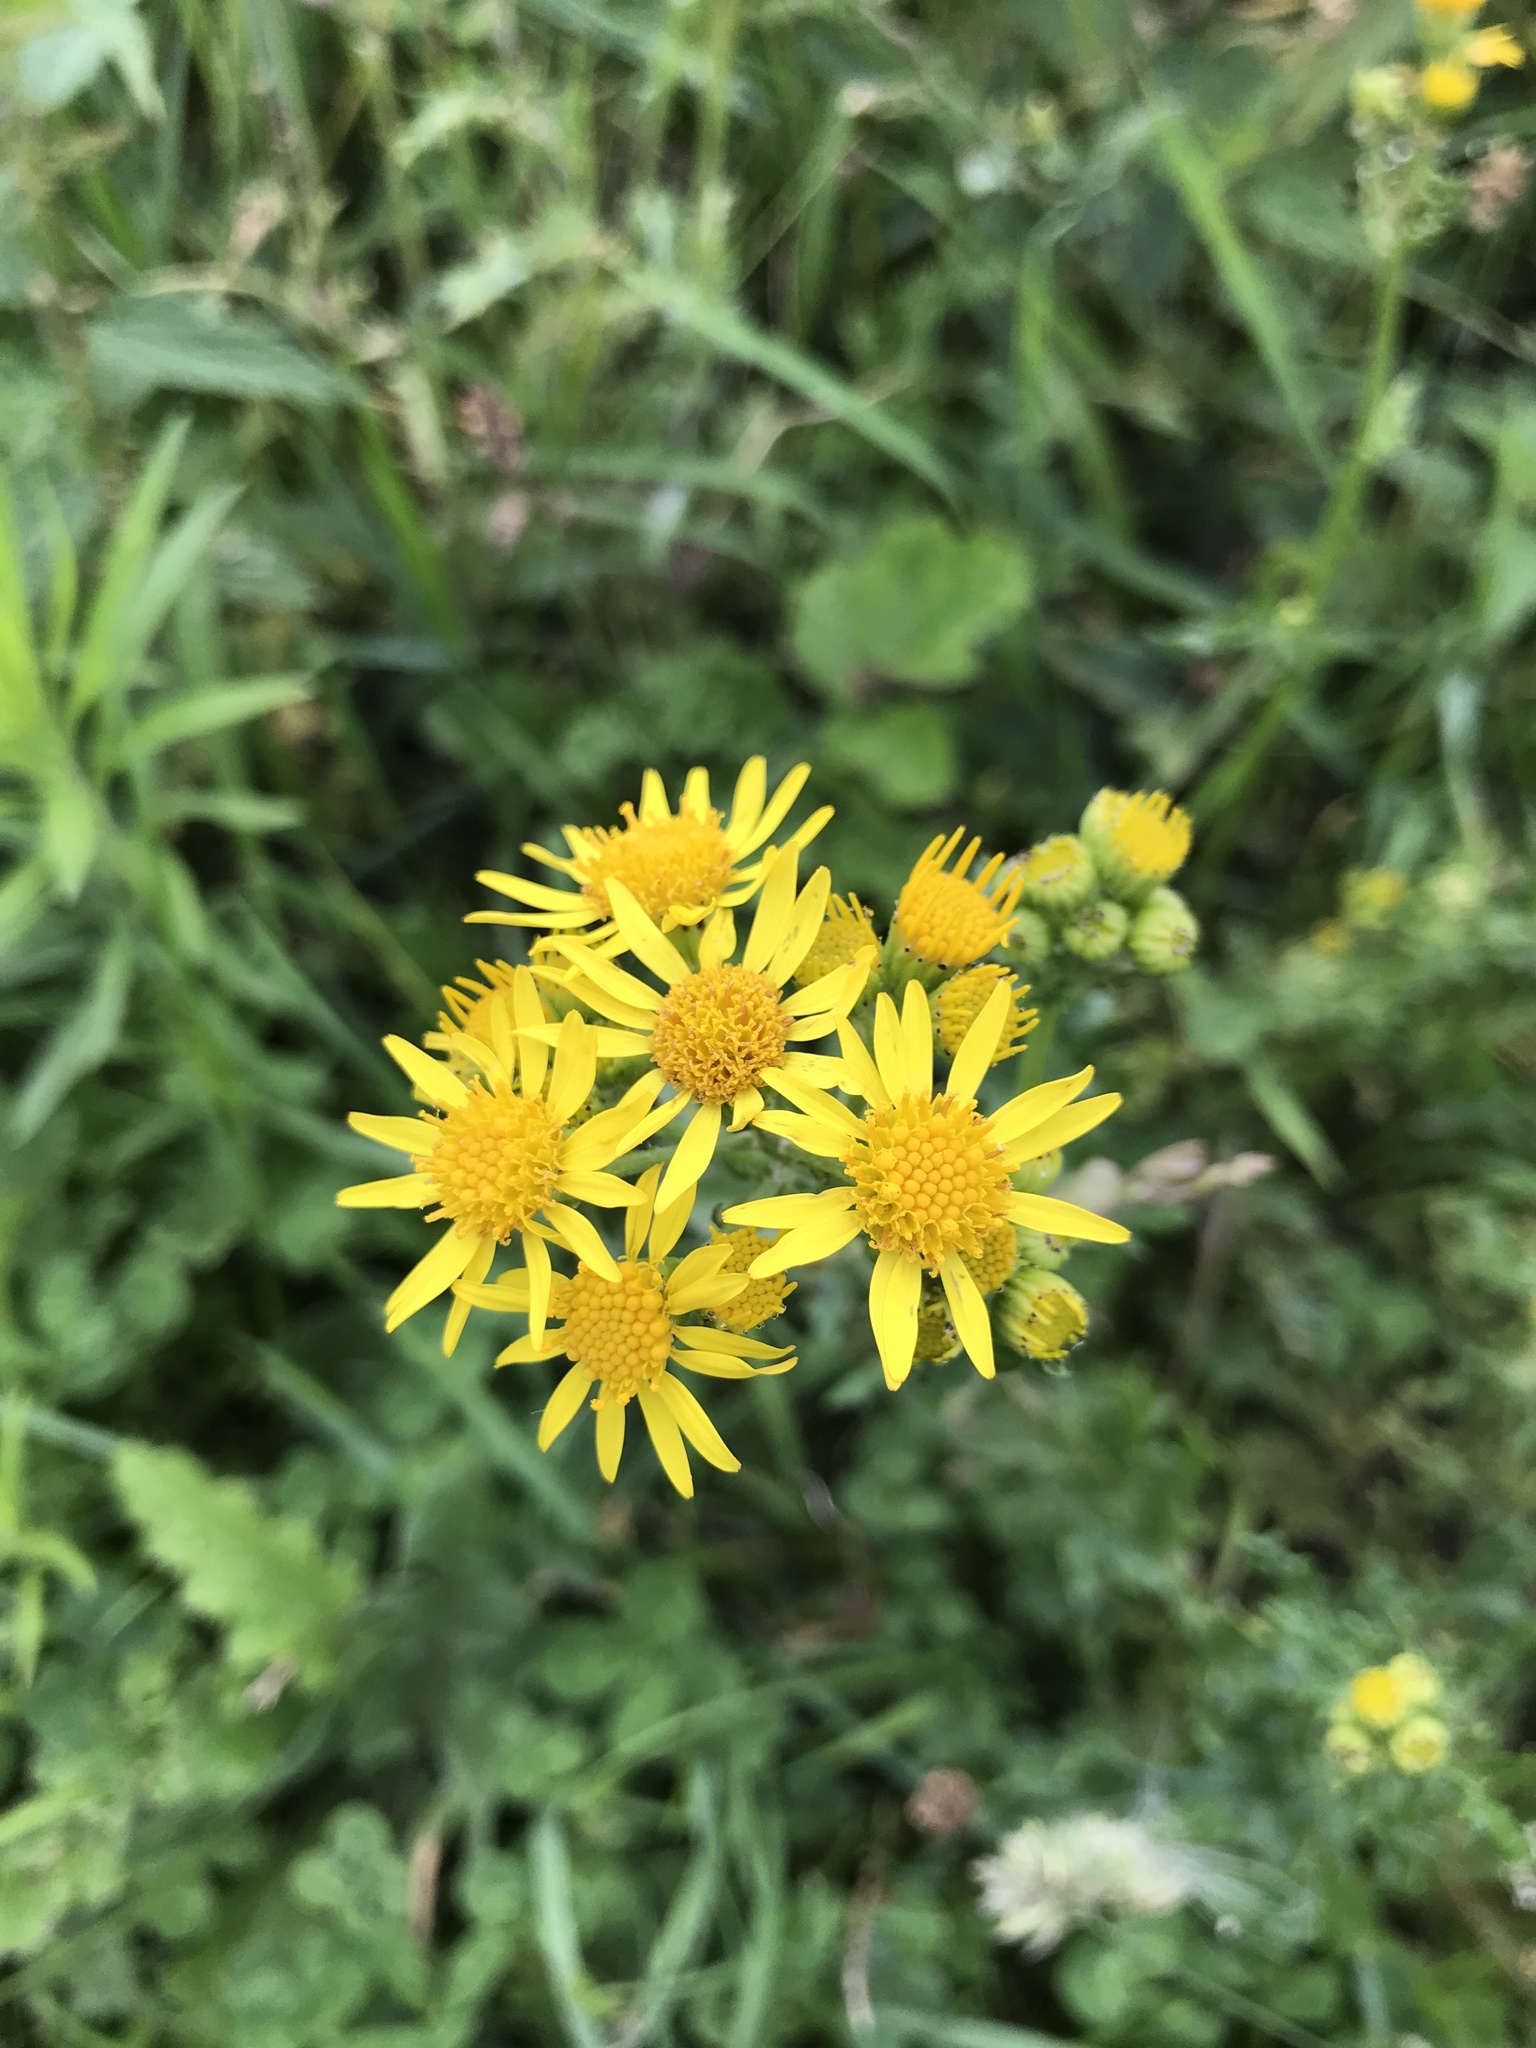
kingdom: Plantae
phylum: Tracheophyta
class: Magnoliopsida
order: Asterales
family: Asteraceae
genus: Jacobaea
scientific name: Jacobaea vulgaris
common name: Stinking willie
